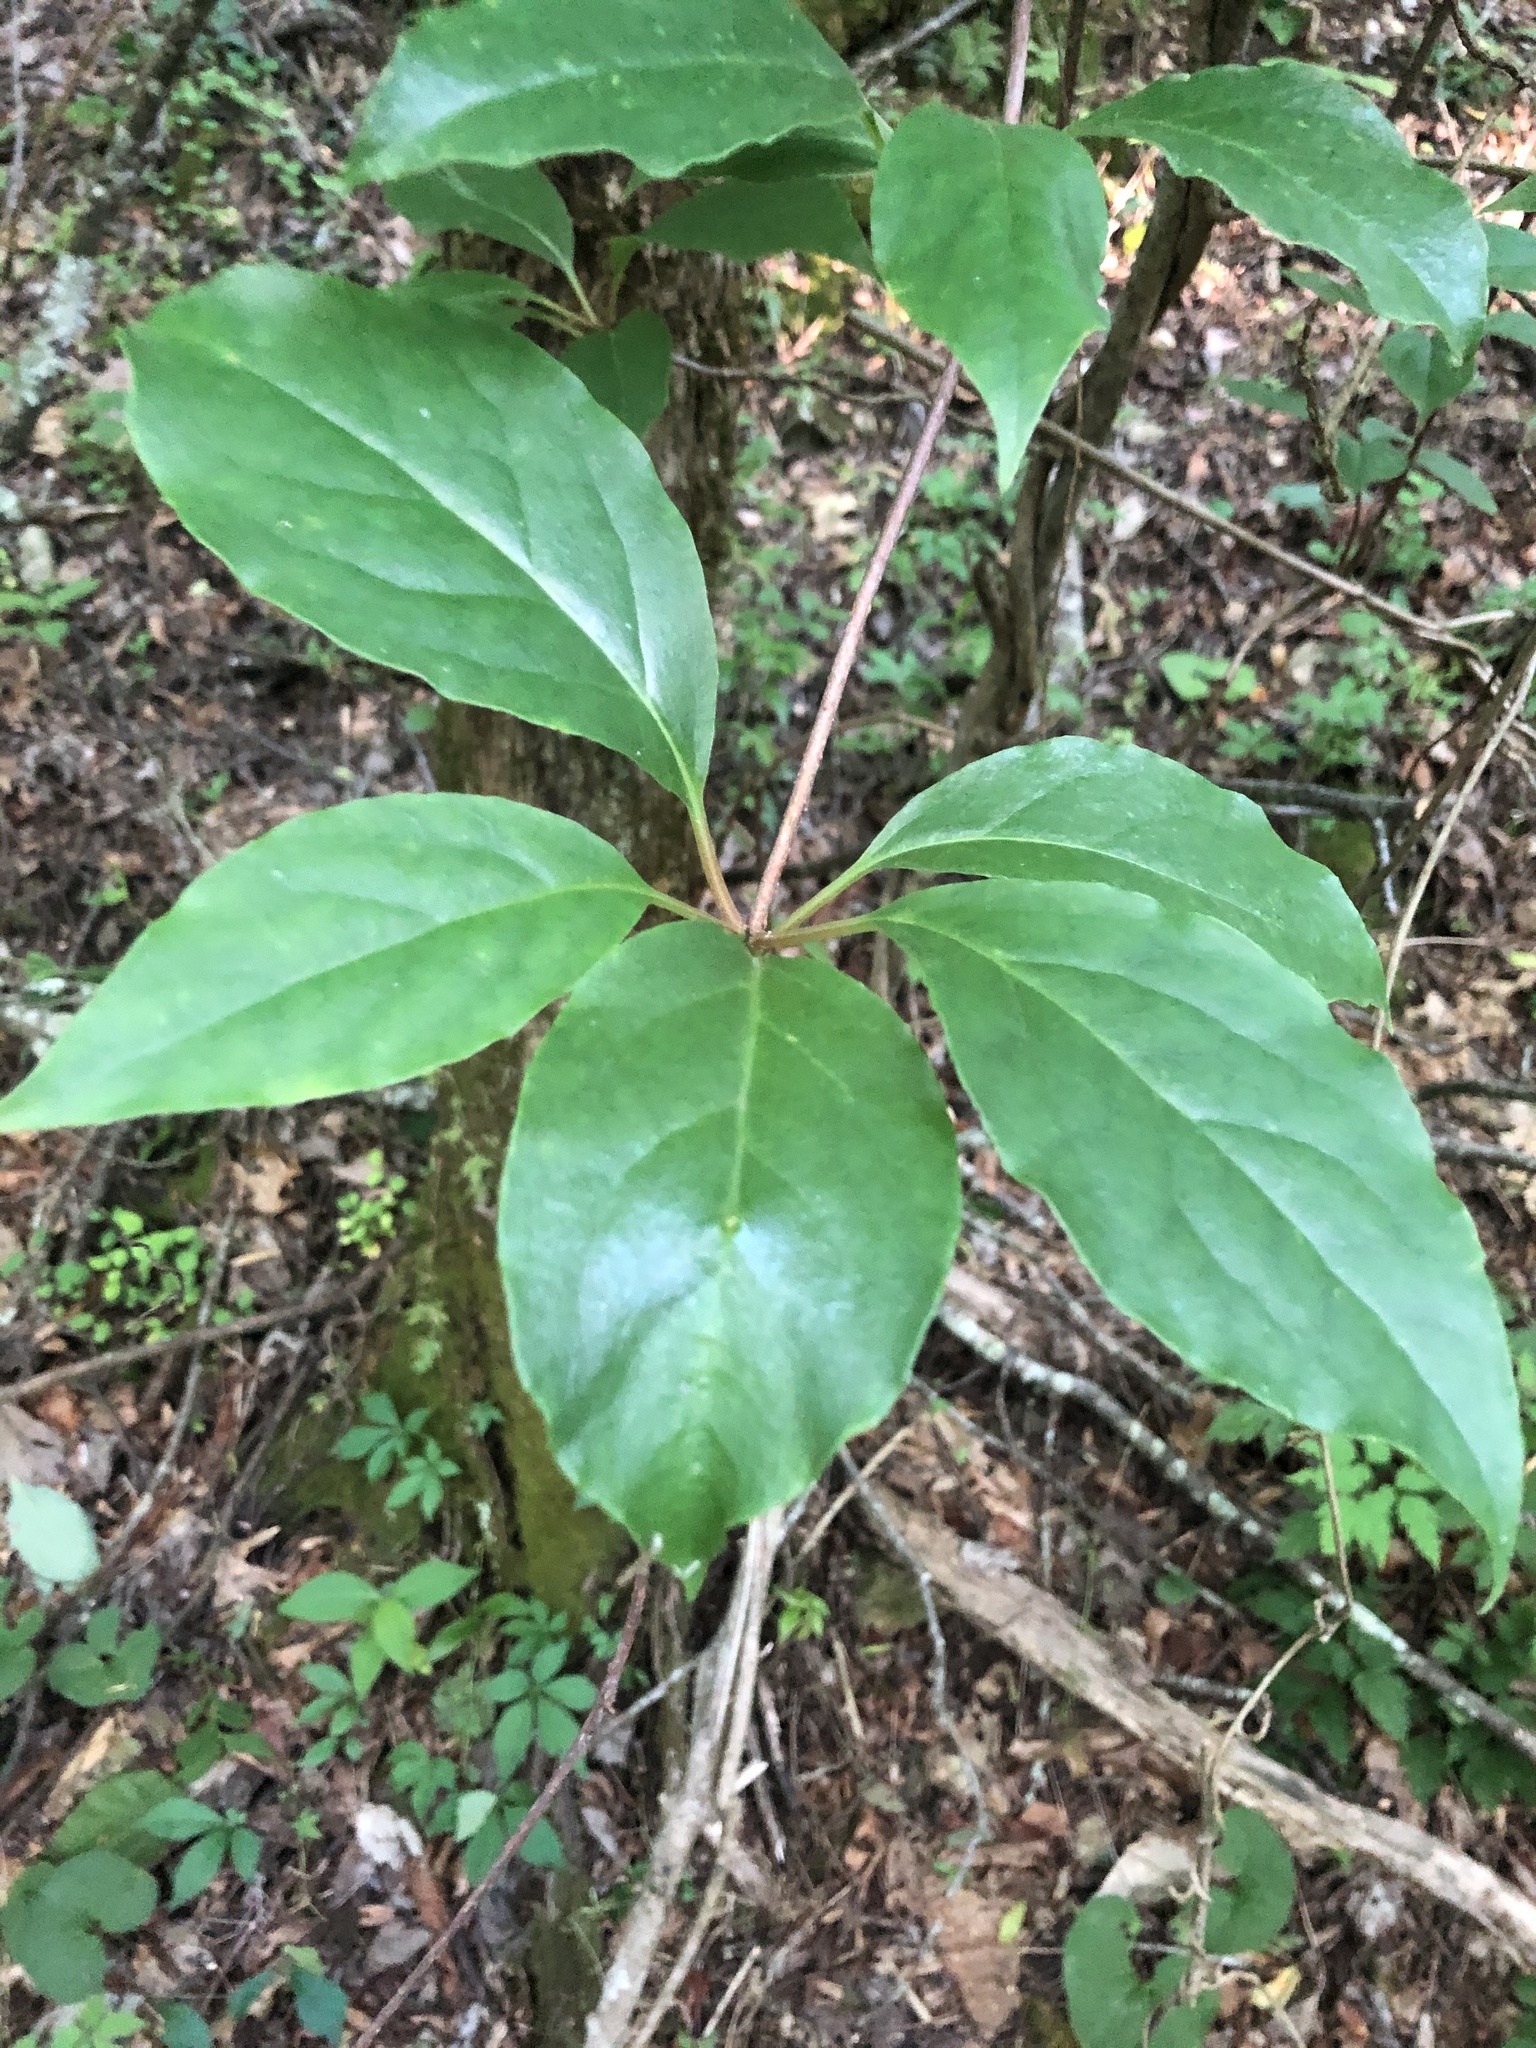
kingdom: Plantae
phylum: Tracheophyta
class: Magnoliopsida
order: Austrobaileyales
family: Schisandraceae
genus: Schisandra
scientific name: Schisandra glabra
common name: Bay-starvine
